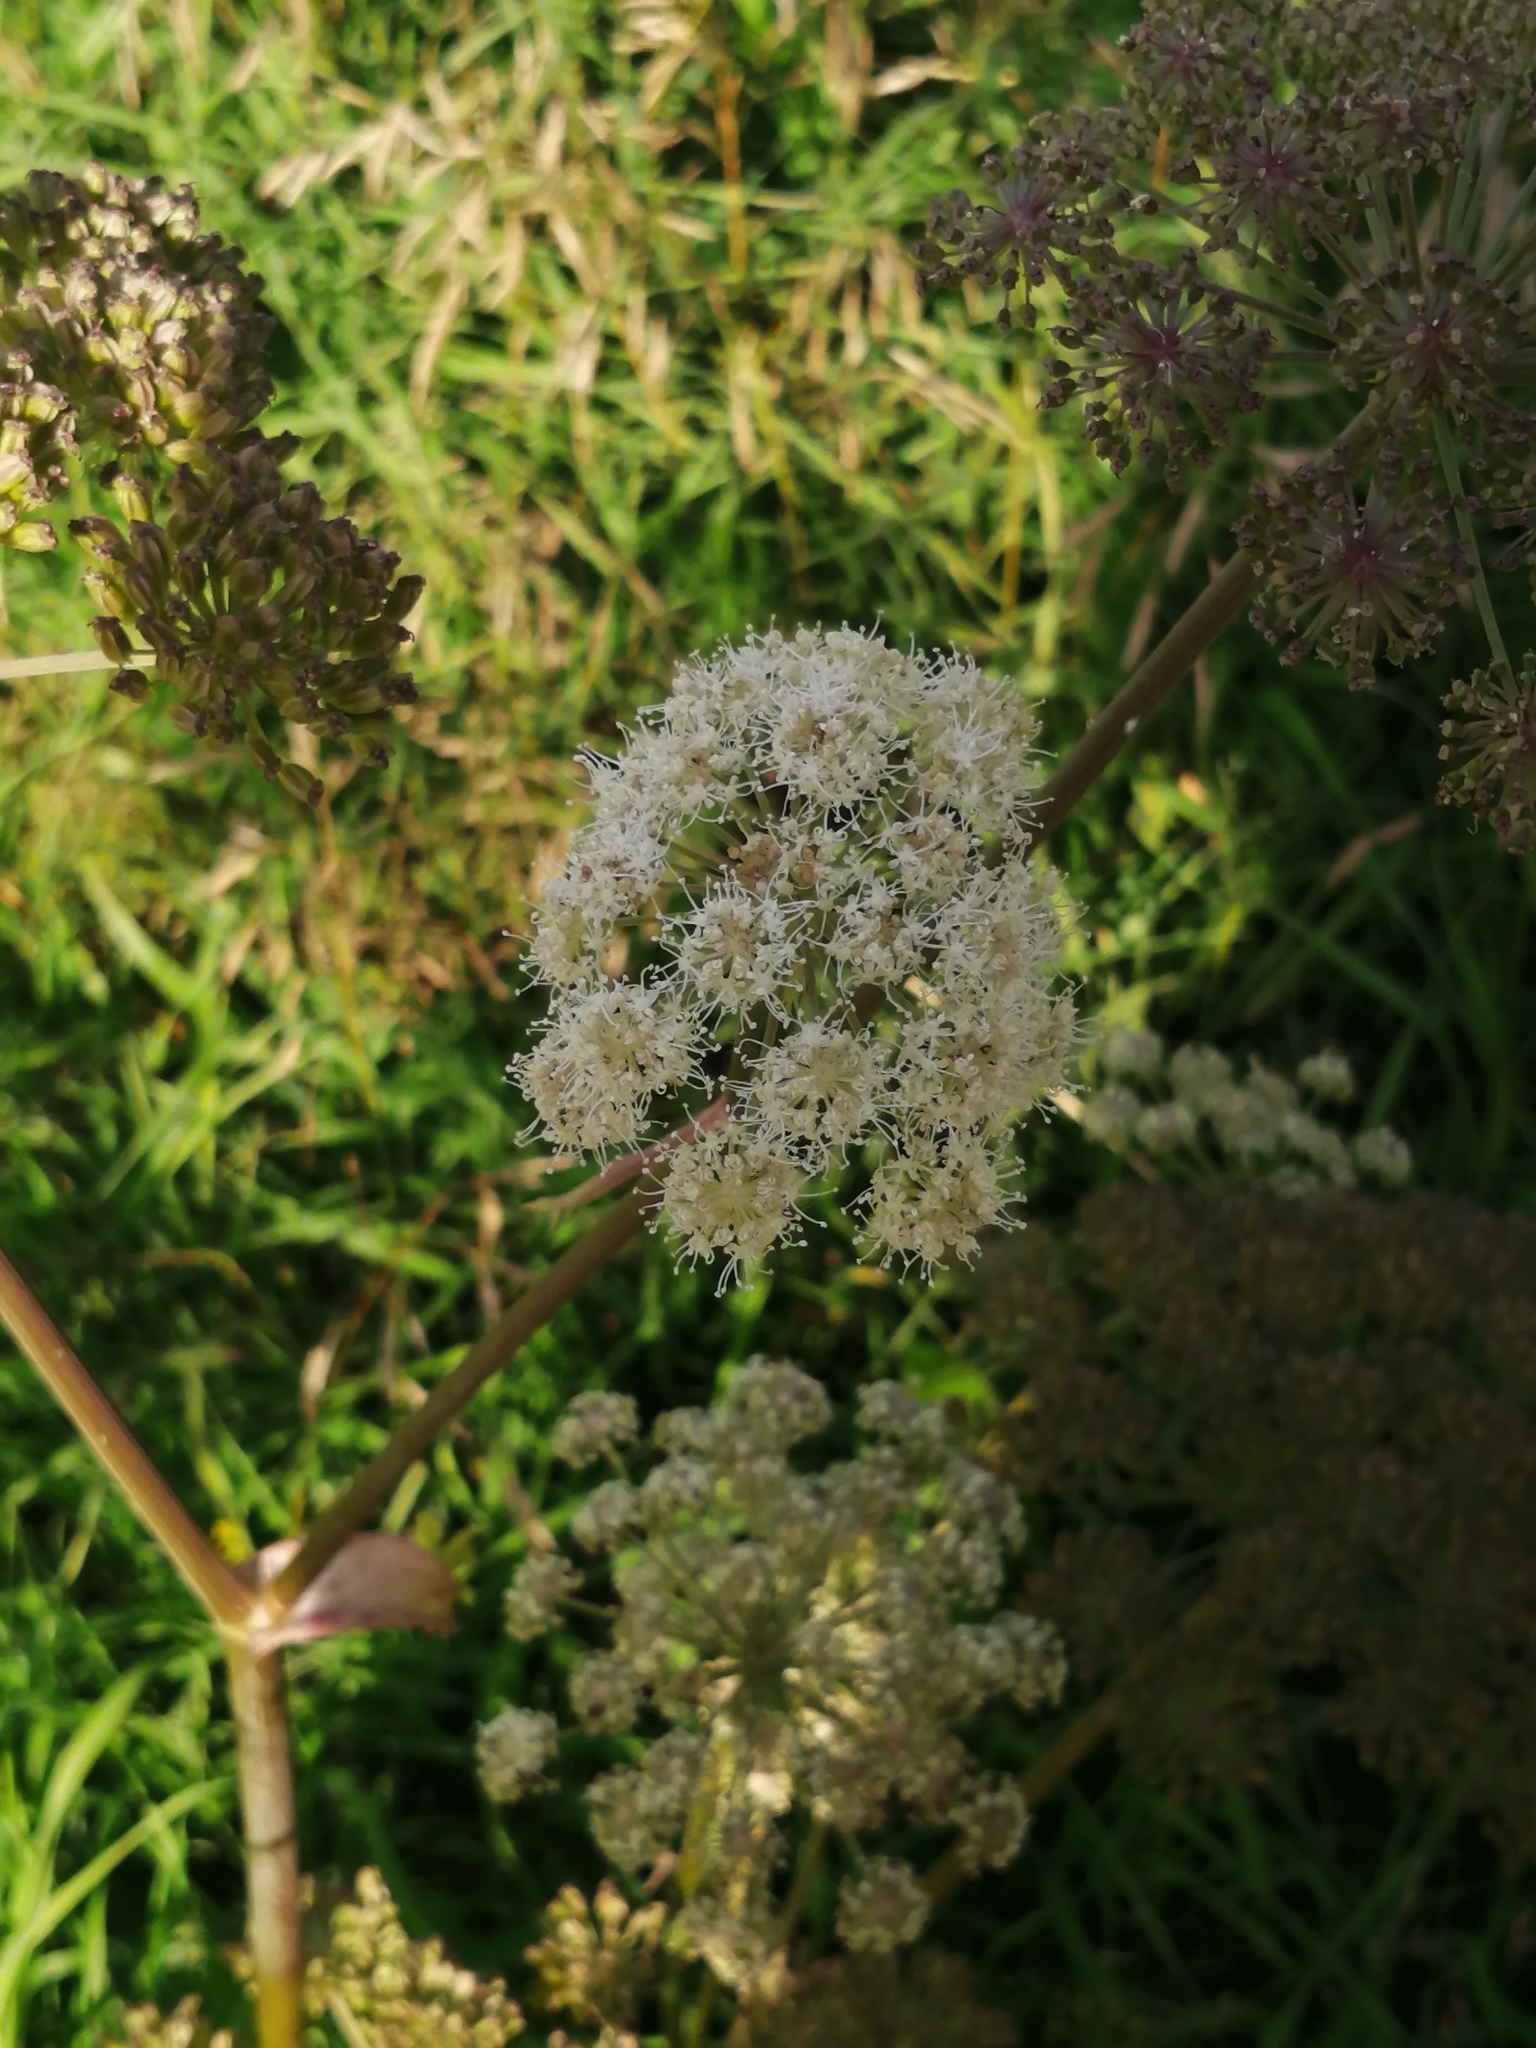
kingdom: Plantae
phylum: Tracheophyta
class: Magnoliopsida
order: Apiales
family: Apiaceae
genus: Angelica
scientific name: Angelica sylvestris
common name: Wild angelica
